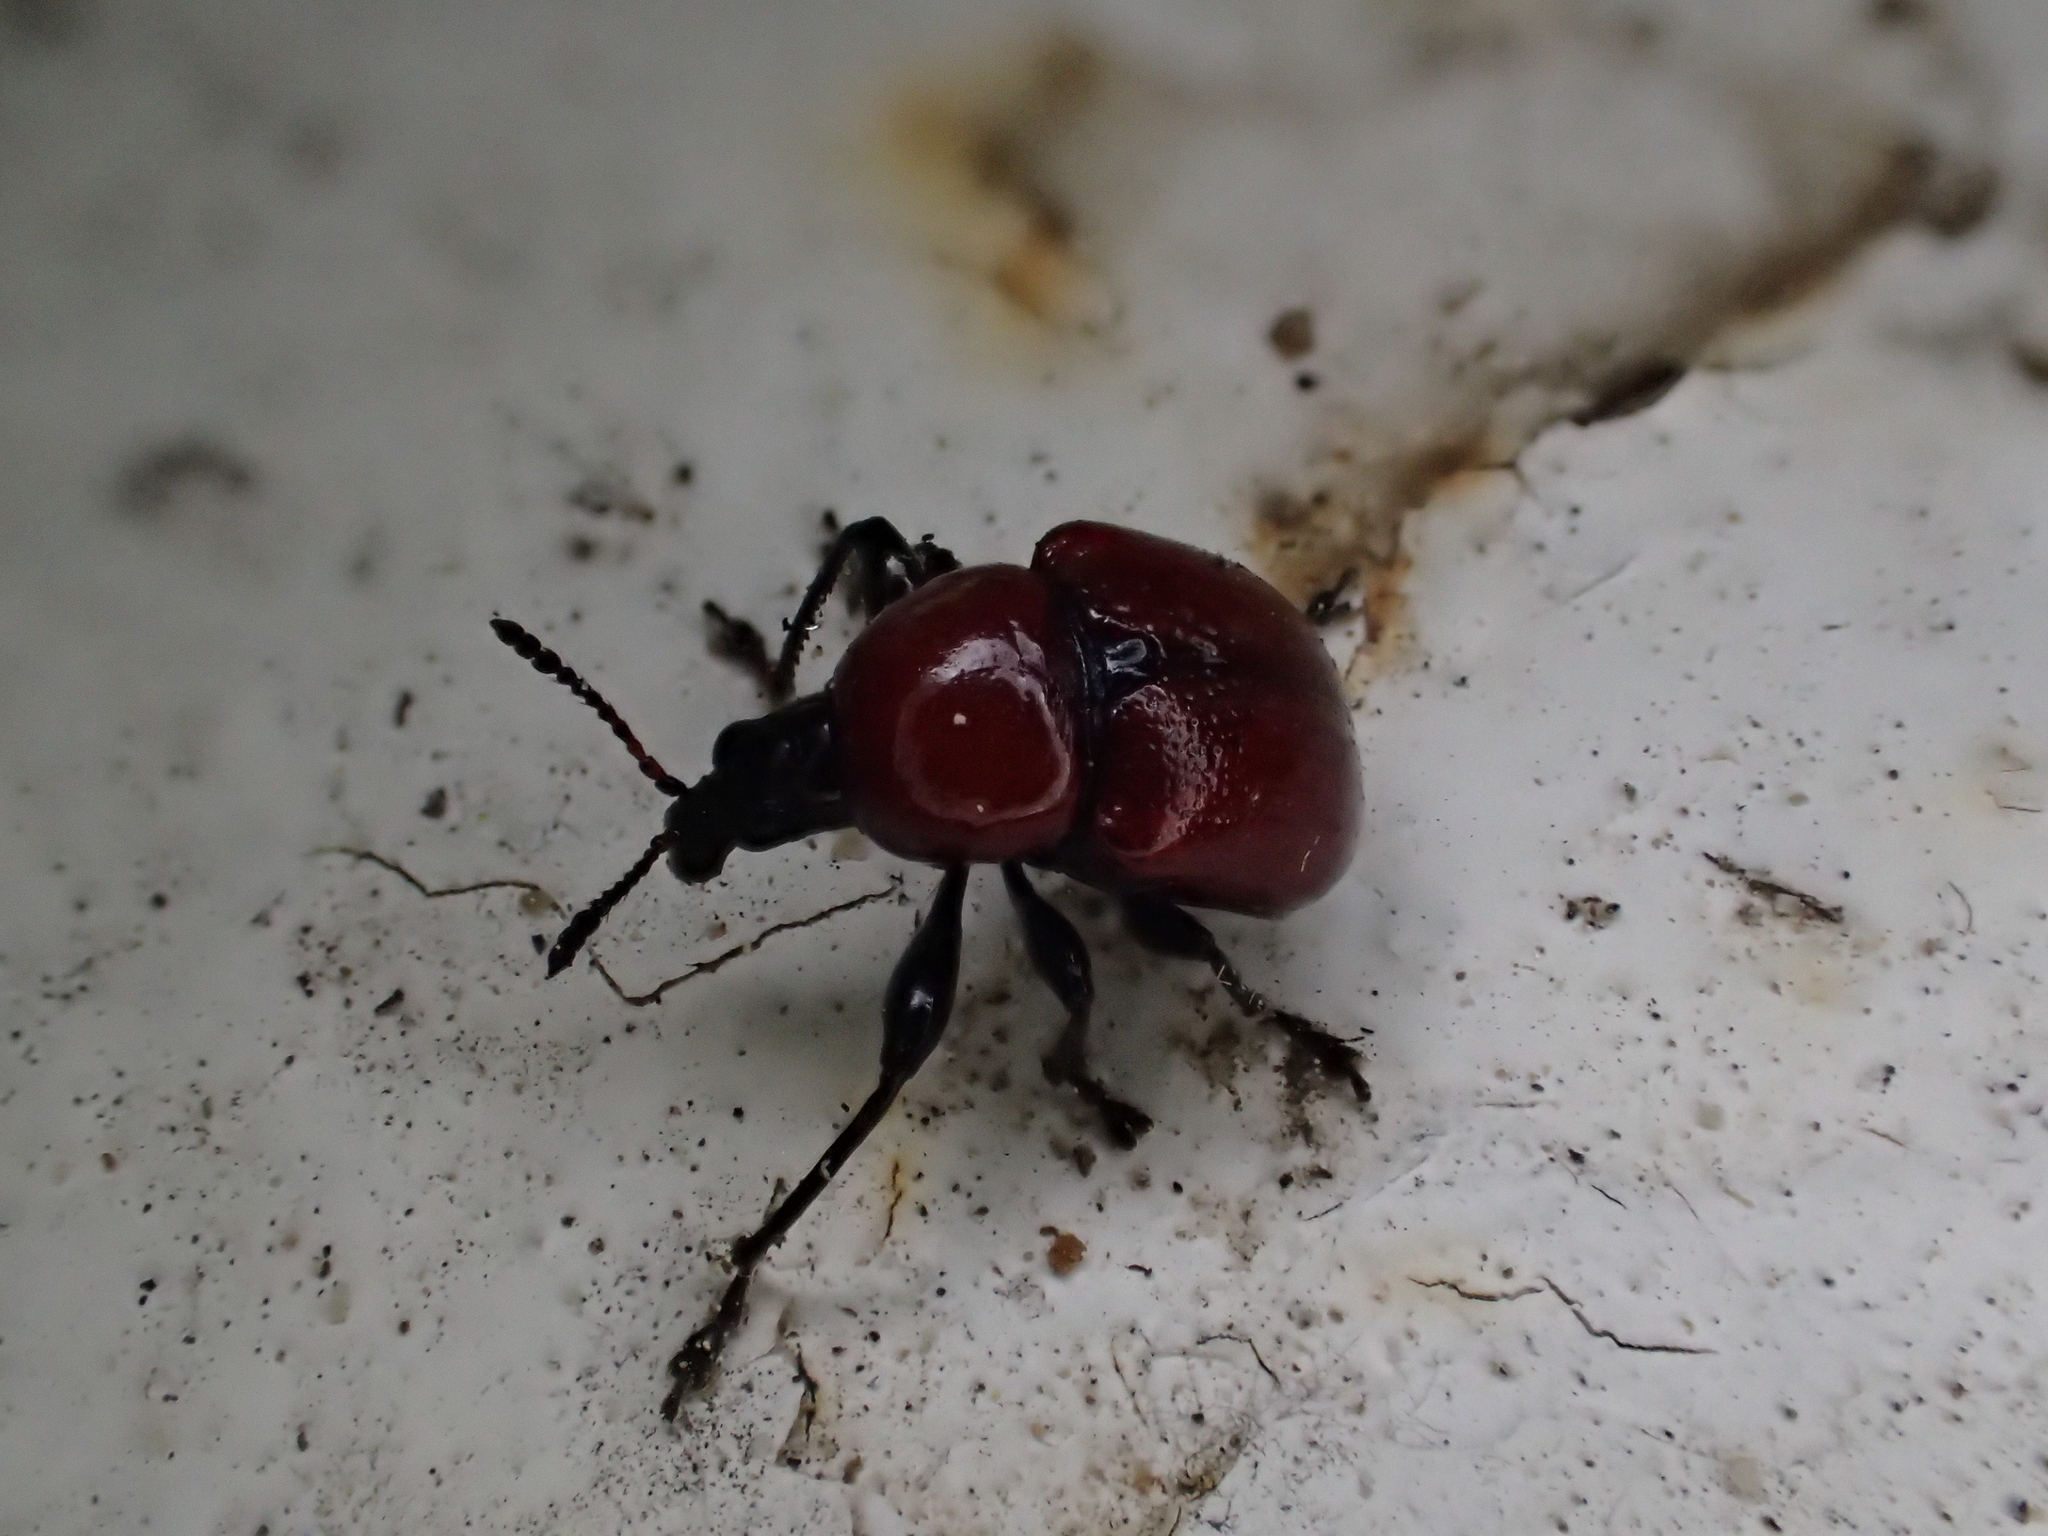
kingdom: Animalia
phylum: Arthropoda
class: Insecta
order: Coleoptera
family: Attelabidae
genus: Attelabus
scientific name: Attelabus nitens
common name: Oak leaf-roller
